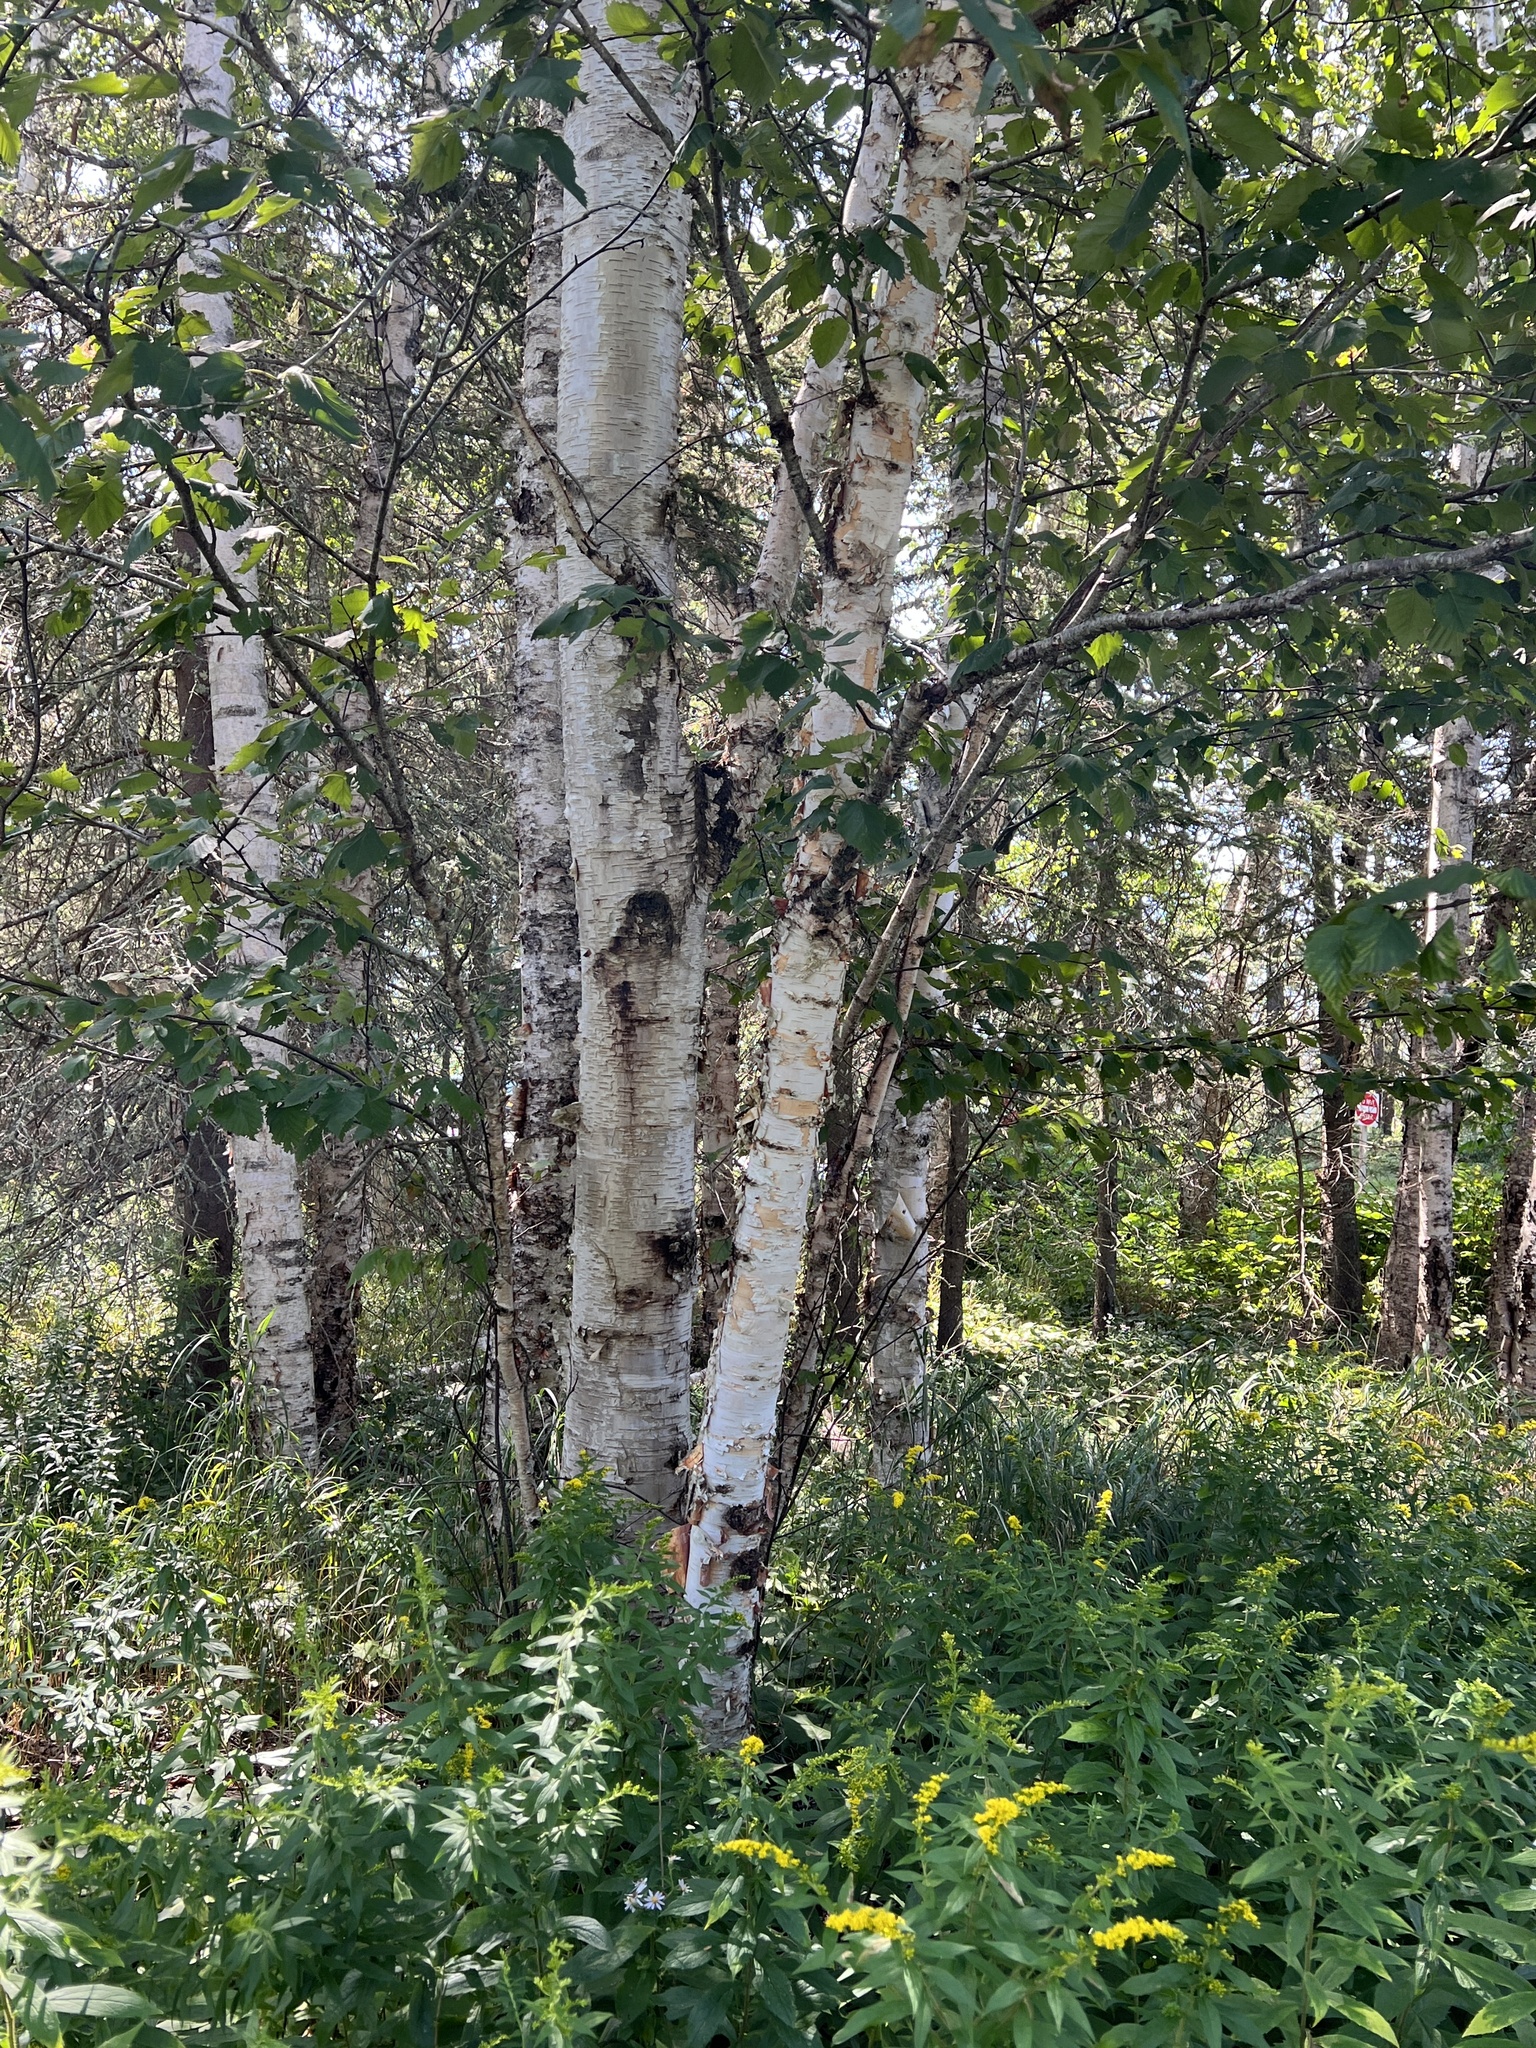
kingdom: Plantae
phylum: Tracheophyta
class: Magnoliopsida
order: Fagales
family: Betulaceae
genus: Betula
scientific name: Betula papyrifera
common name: Paper birch
